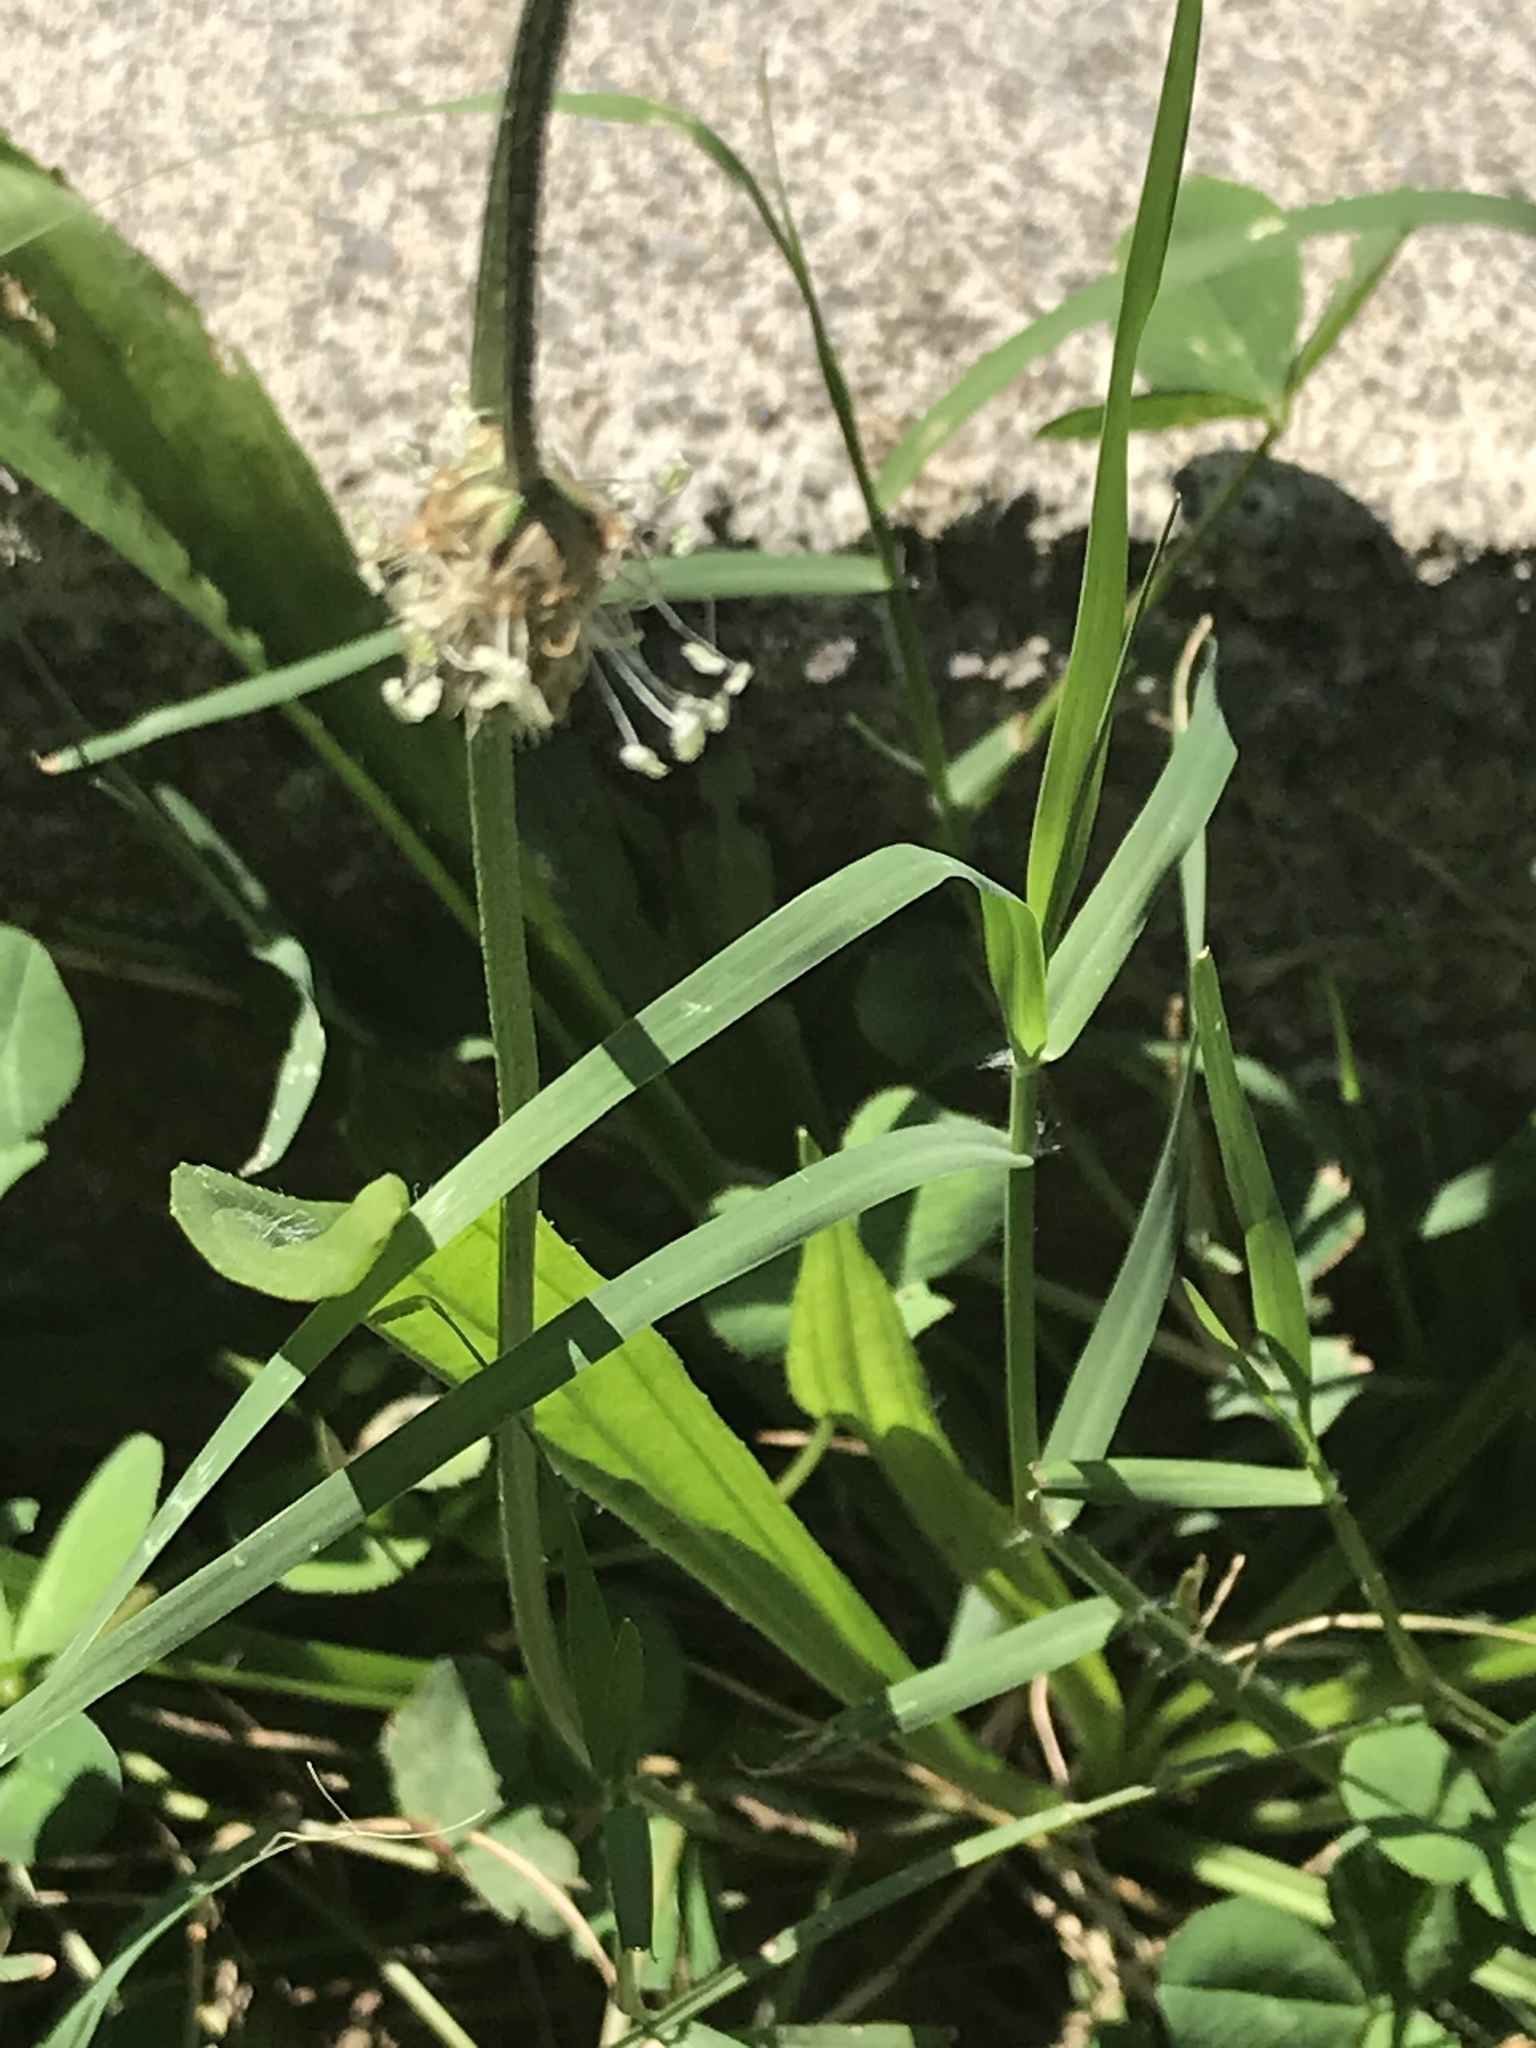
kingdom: Plantae
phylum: Tracheophyta
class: Magnoliopsida
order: Lamiales
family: Plantaginaceae
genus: Plantago
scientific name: Plantago lanceolata
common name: Ribwort plantain
